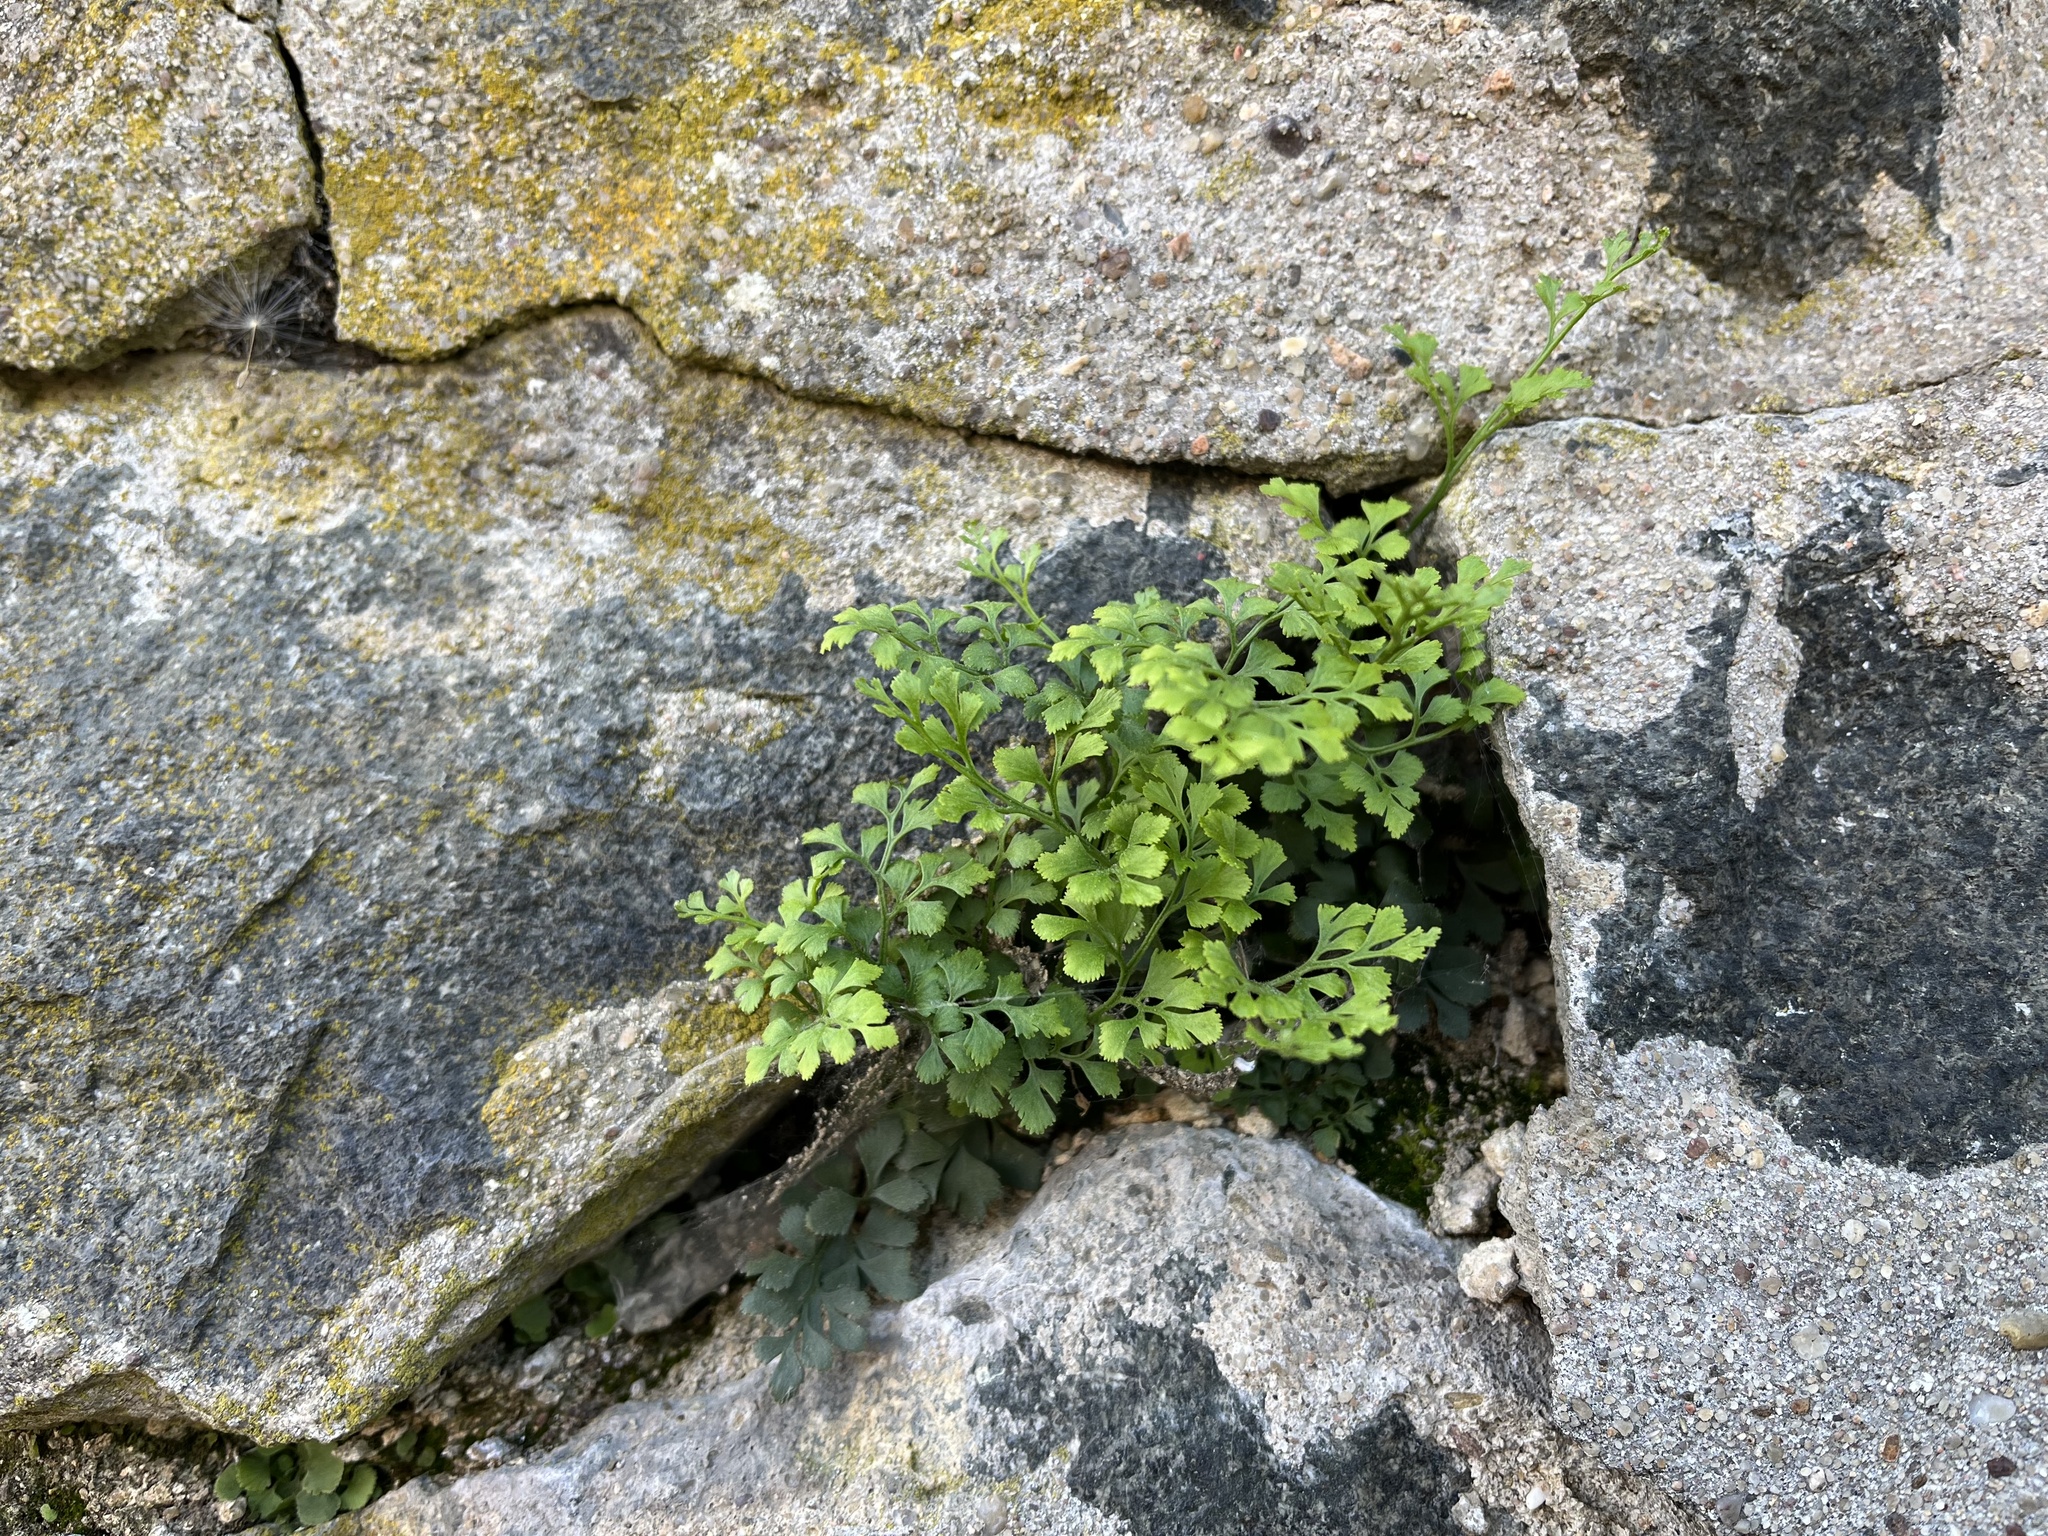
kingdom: Plantae
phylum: Tracheophyta
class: Polypodiopsida
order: Polypodiales
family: Aspleniaceae
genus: Asplenium
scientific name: Asplenium ruta-muraria
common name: Wall-rue
